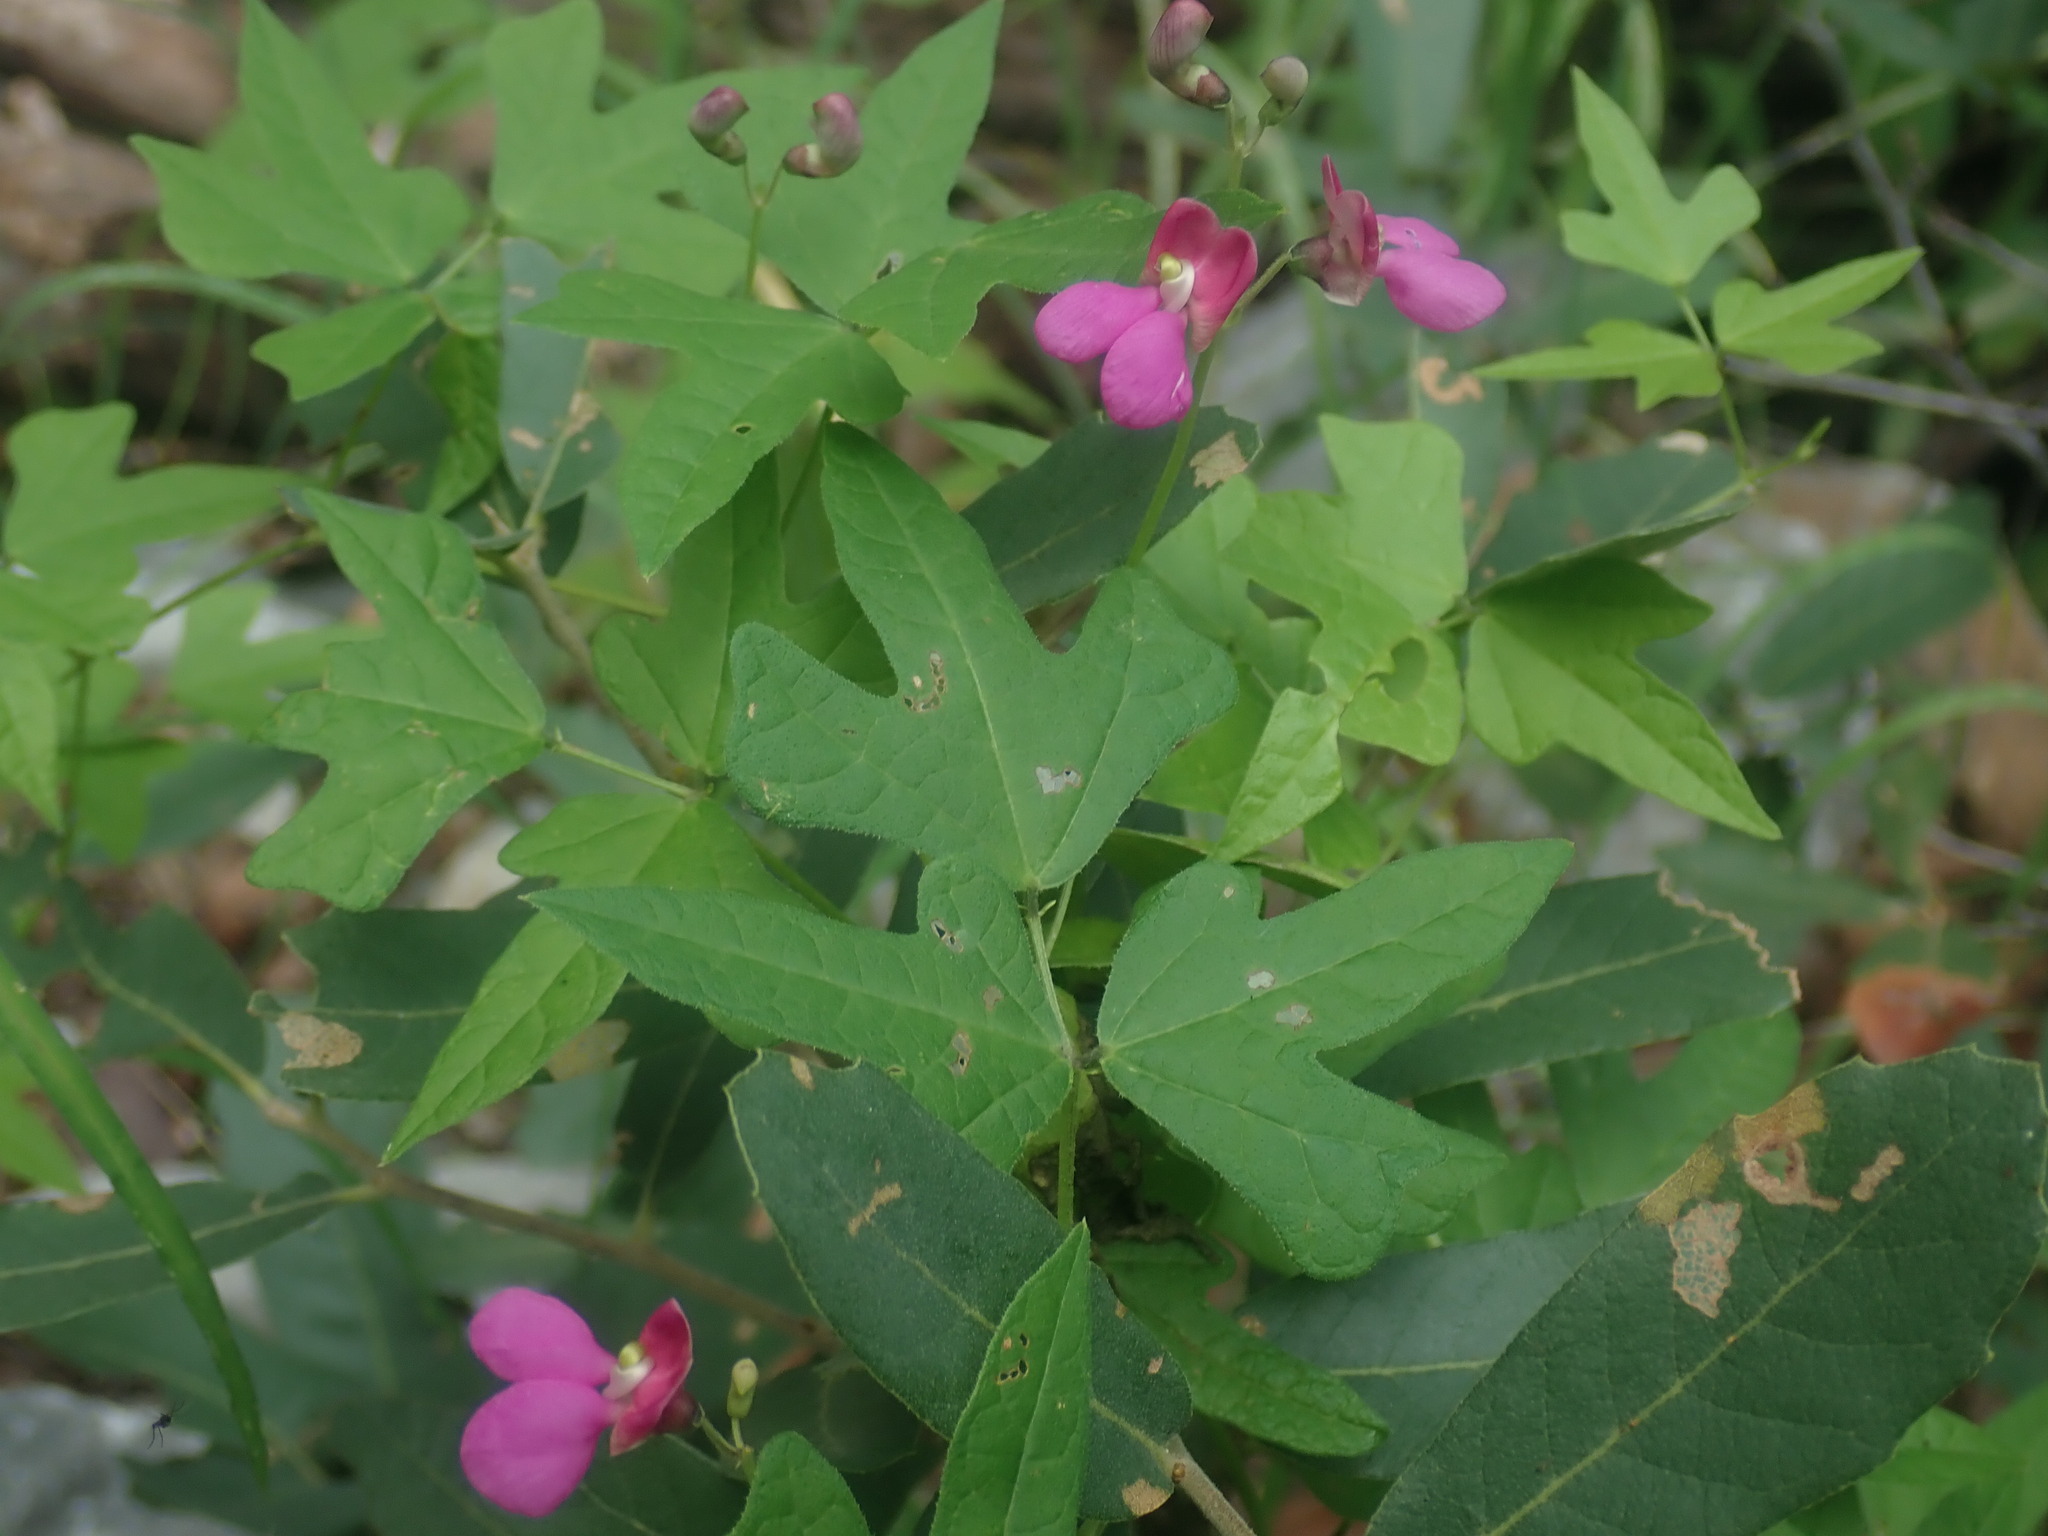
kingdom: Plantae
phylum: Tracheophyta
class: Magnoliopsida
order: Fabales
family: Fabaceae
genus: Phaseolus
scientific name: Phaseolus pedicellatus
